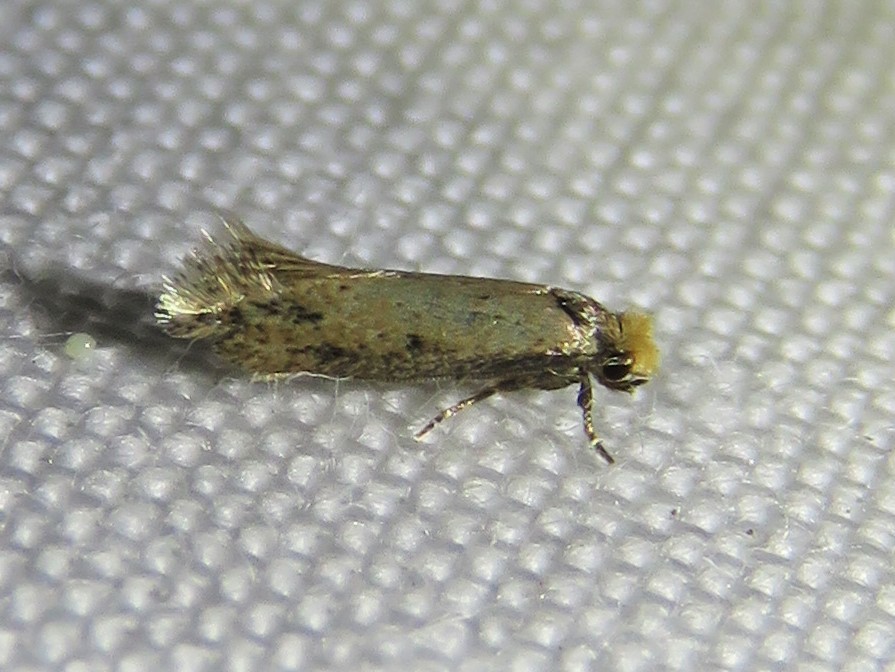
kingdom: Animalia
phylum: Arthropoda
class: Insecta
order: Lepidoptera
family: Meessiidae
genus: Homostinea
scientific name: Homostinea curviliniella
